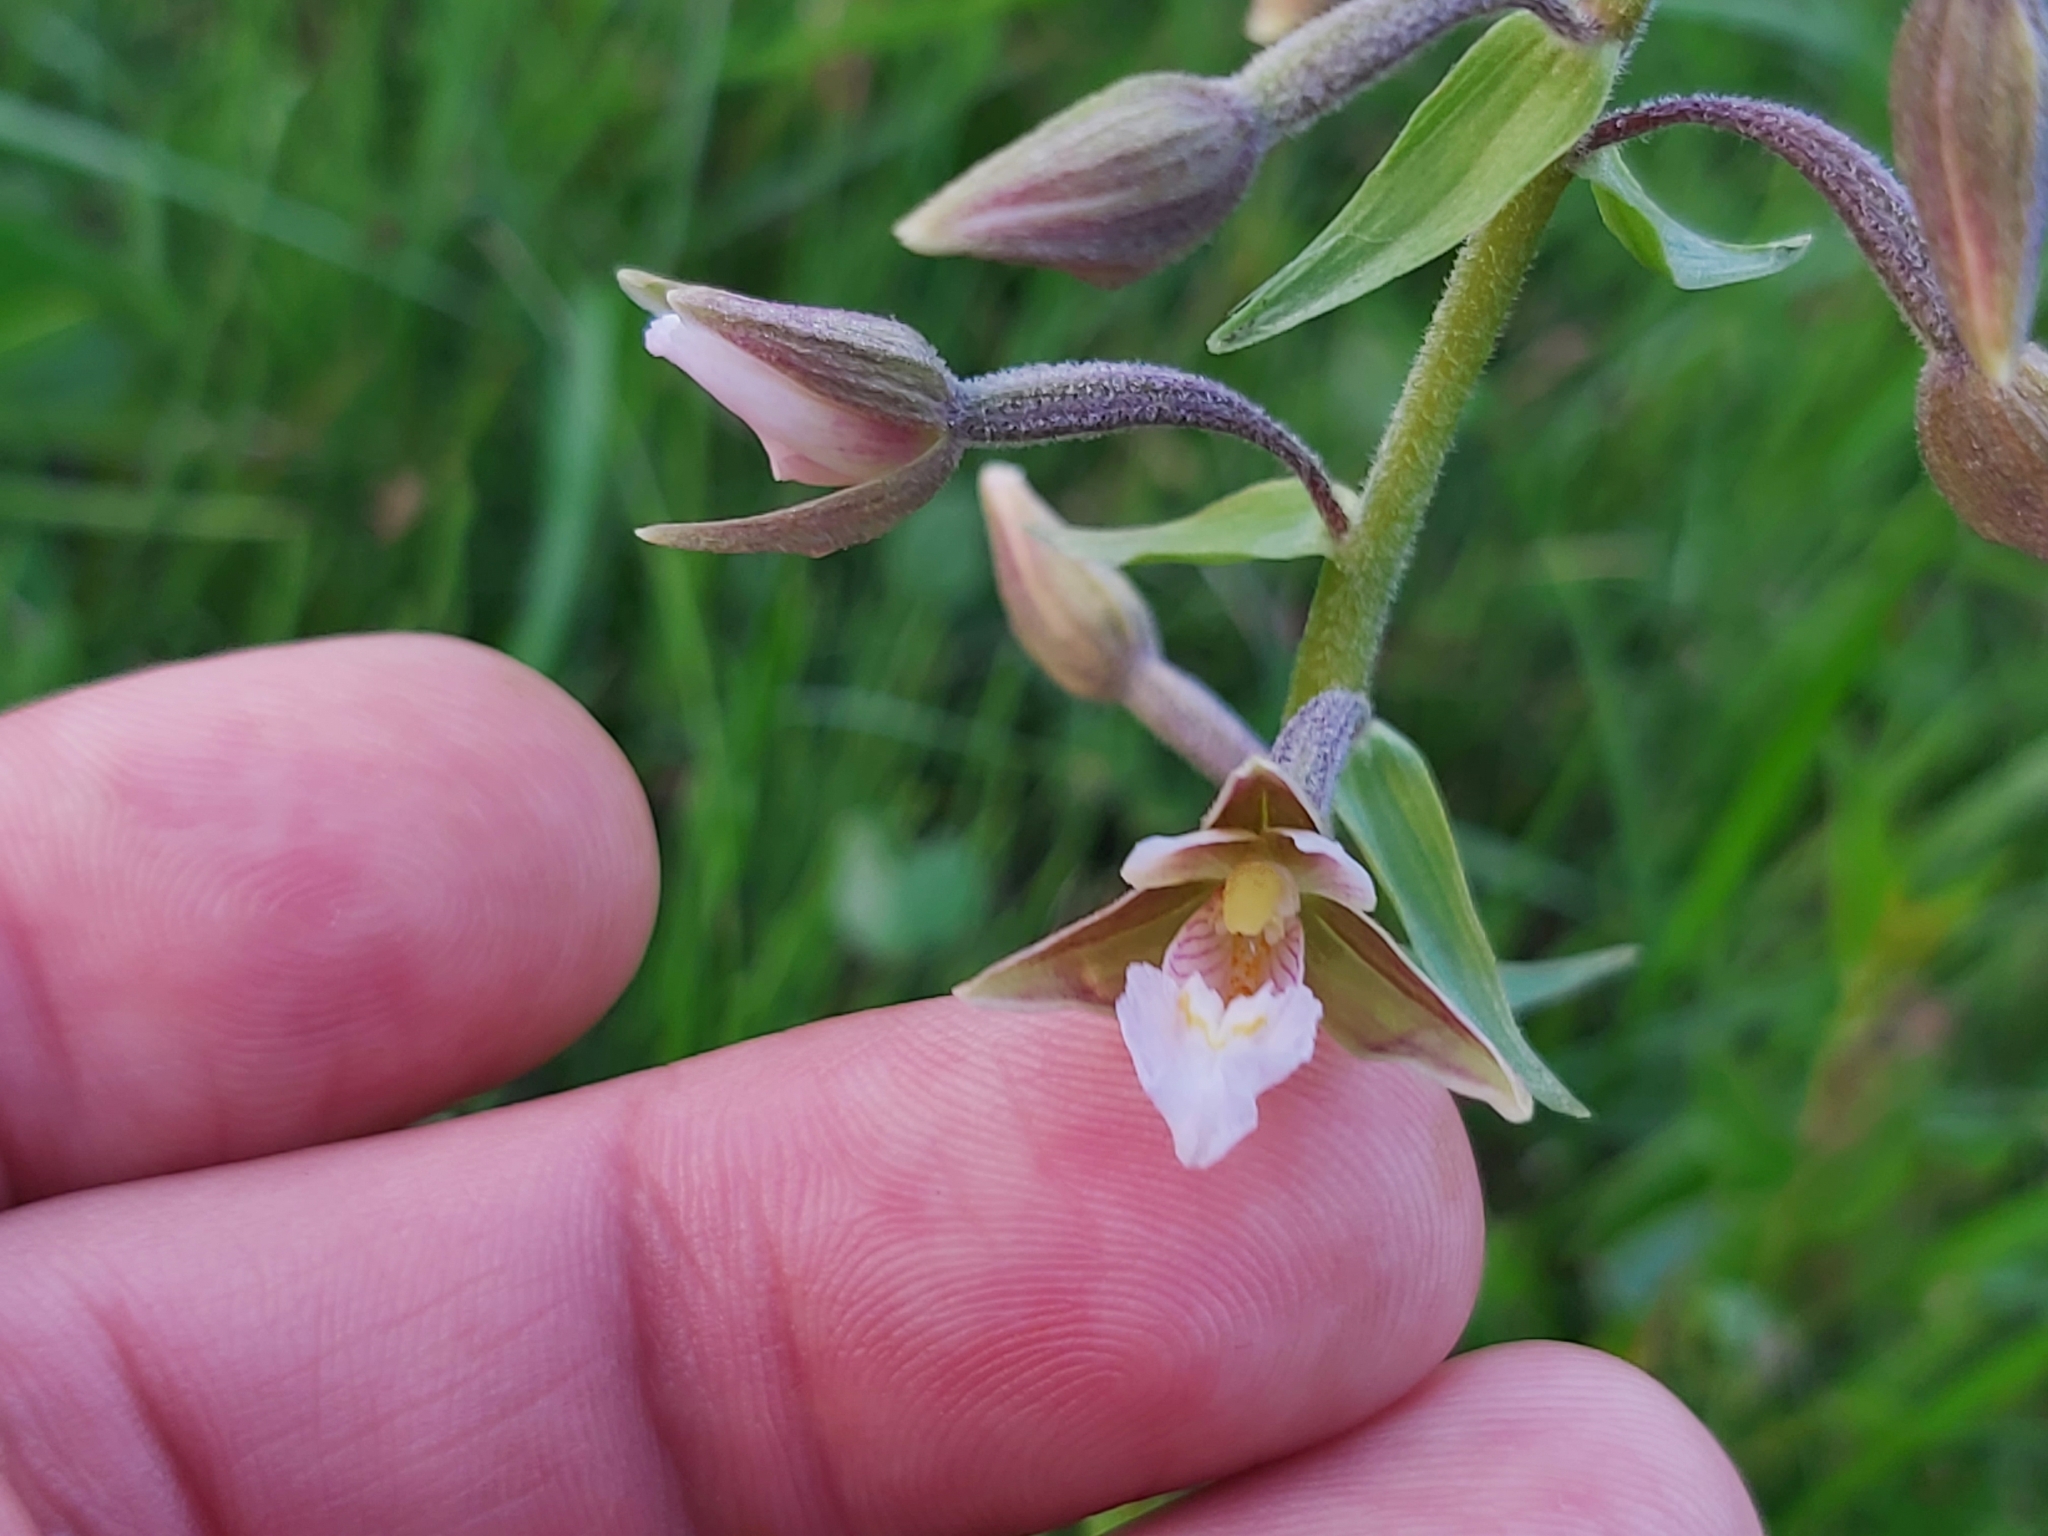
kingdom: Plantae
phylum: Tracheophyta
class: Liliopsida
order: Asparagales
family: Orchidaceae
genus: Epipactis
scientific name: Epipactis palustris
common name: Marsh helleborine
